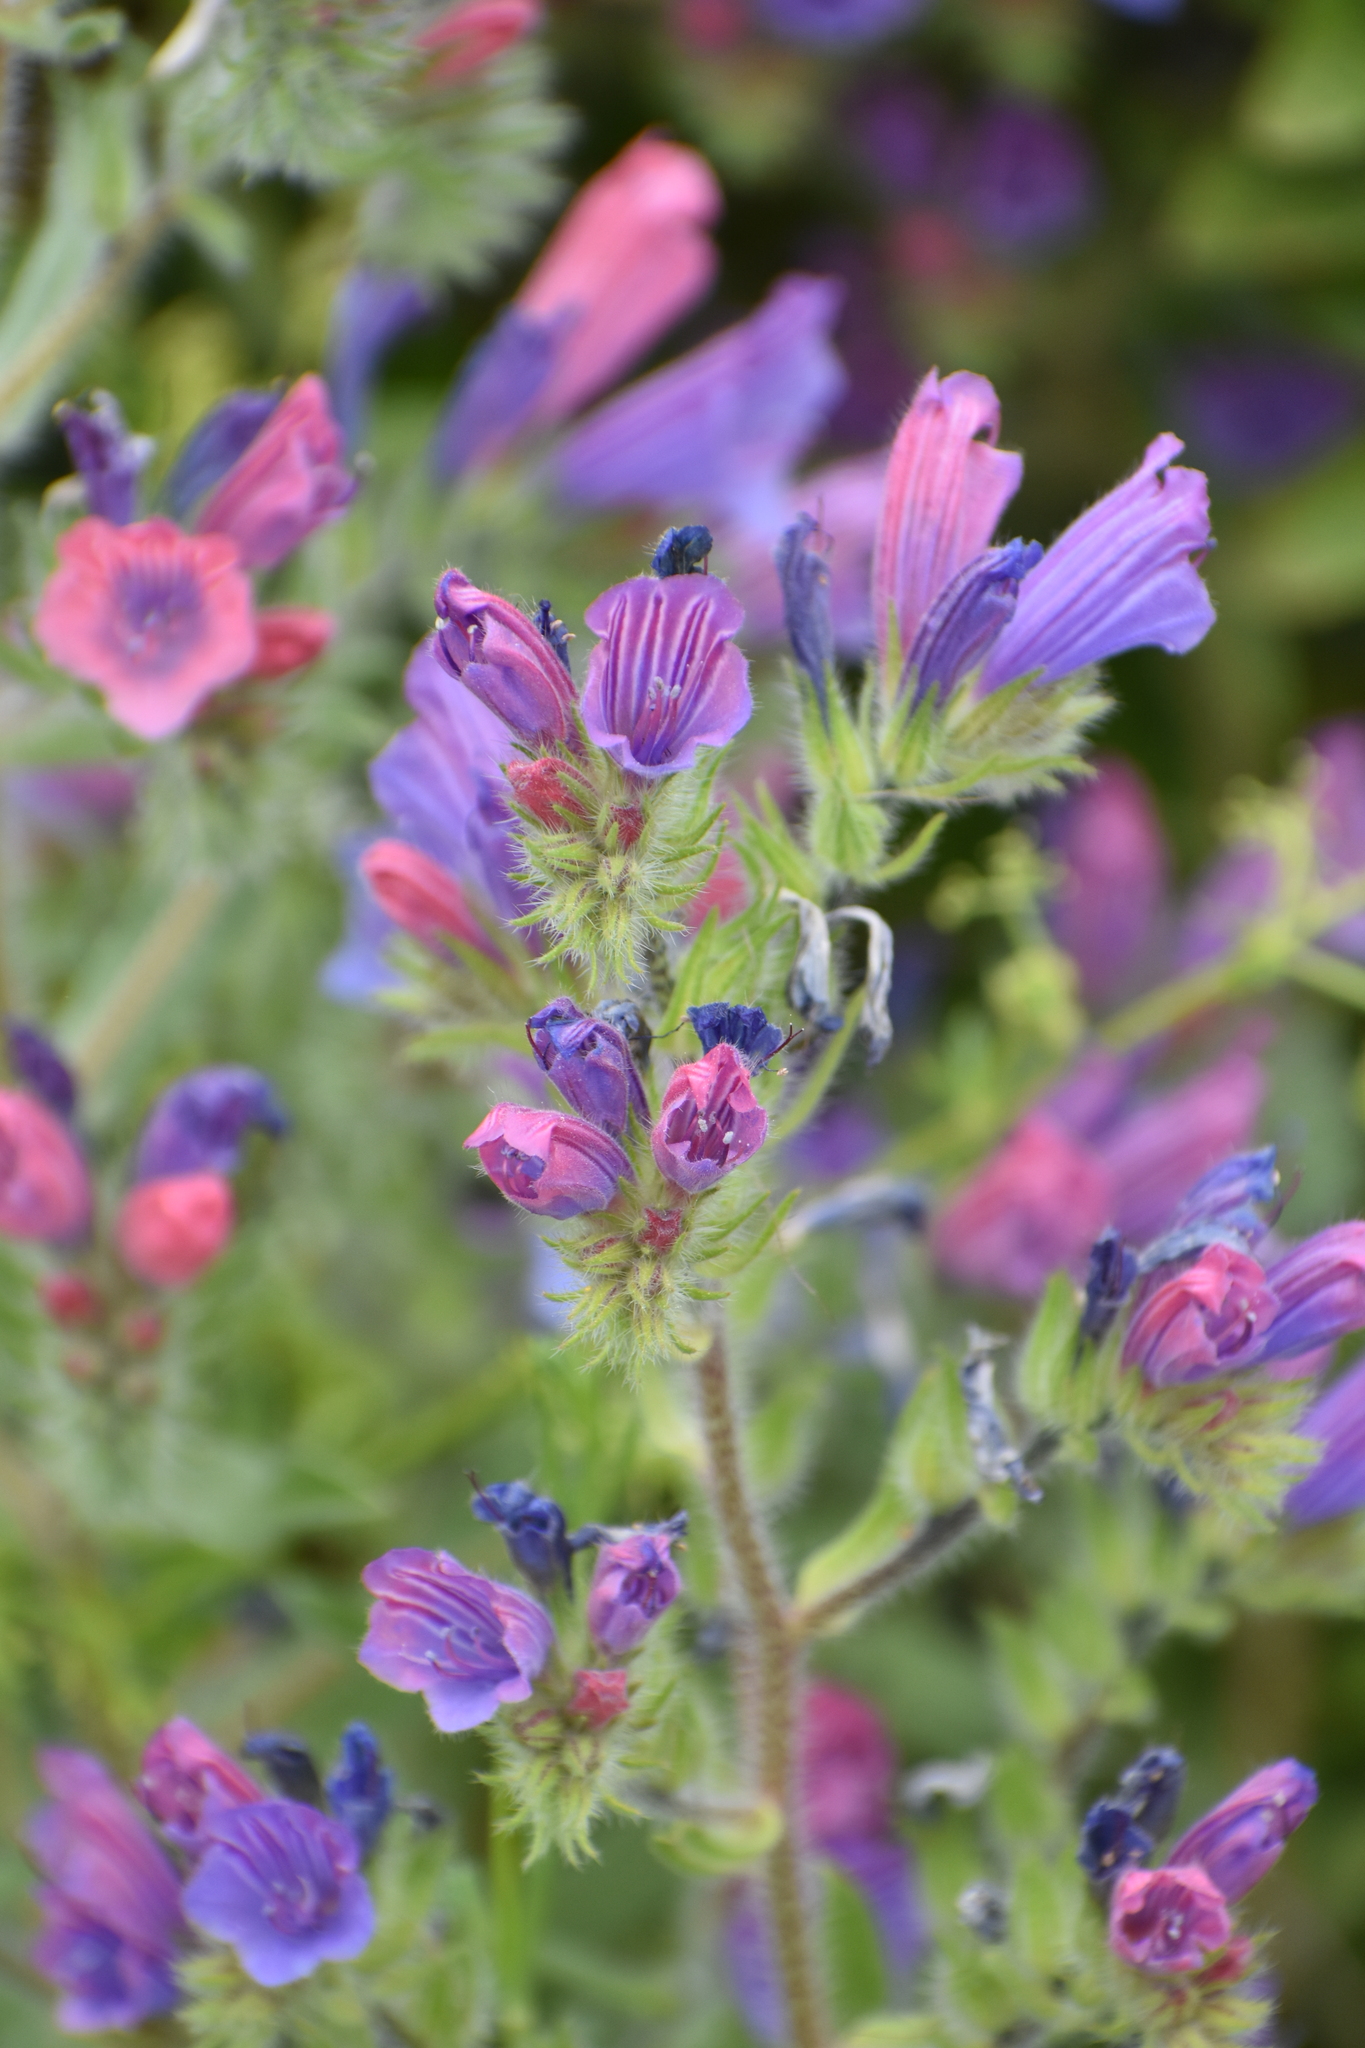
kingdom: Plantae
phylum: Tracheophyta
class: Magnoliopsida
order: Boraginales
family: Boraginaceae
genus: Echium
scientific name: Echium judaeum
